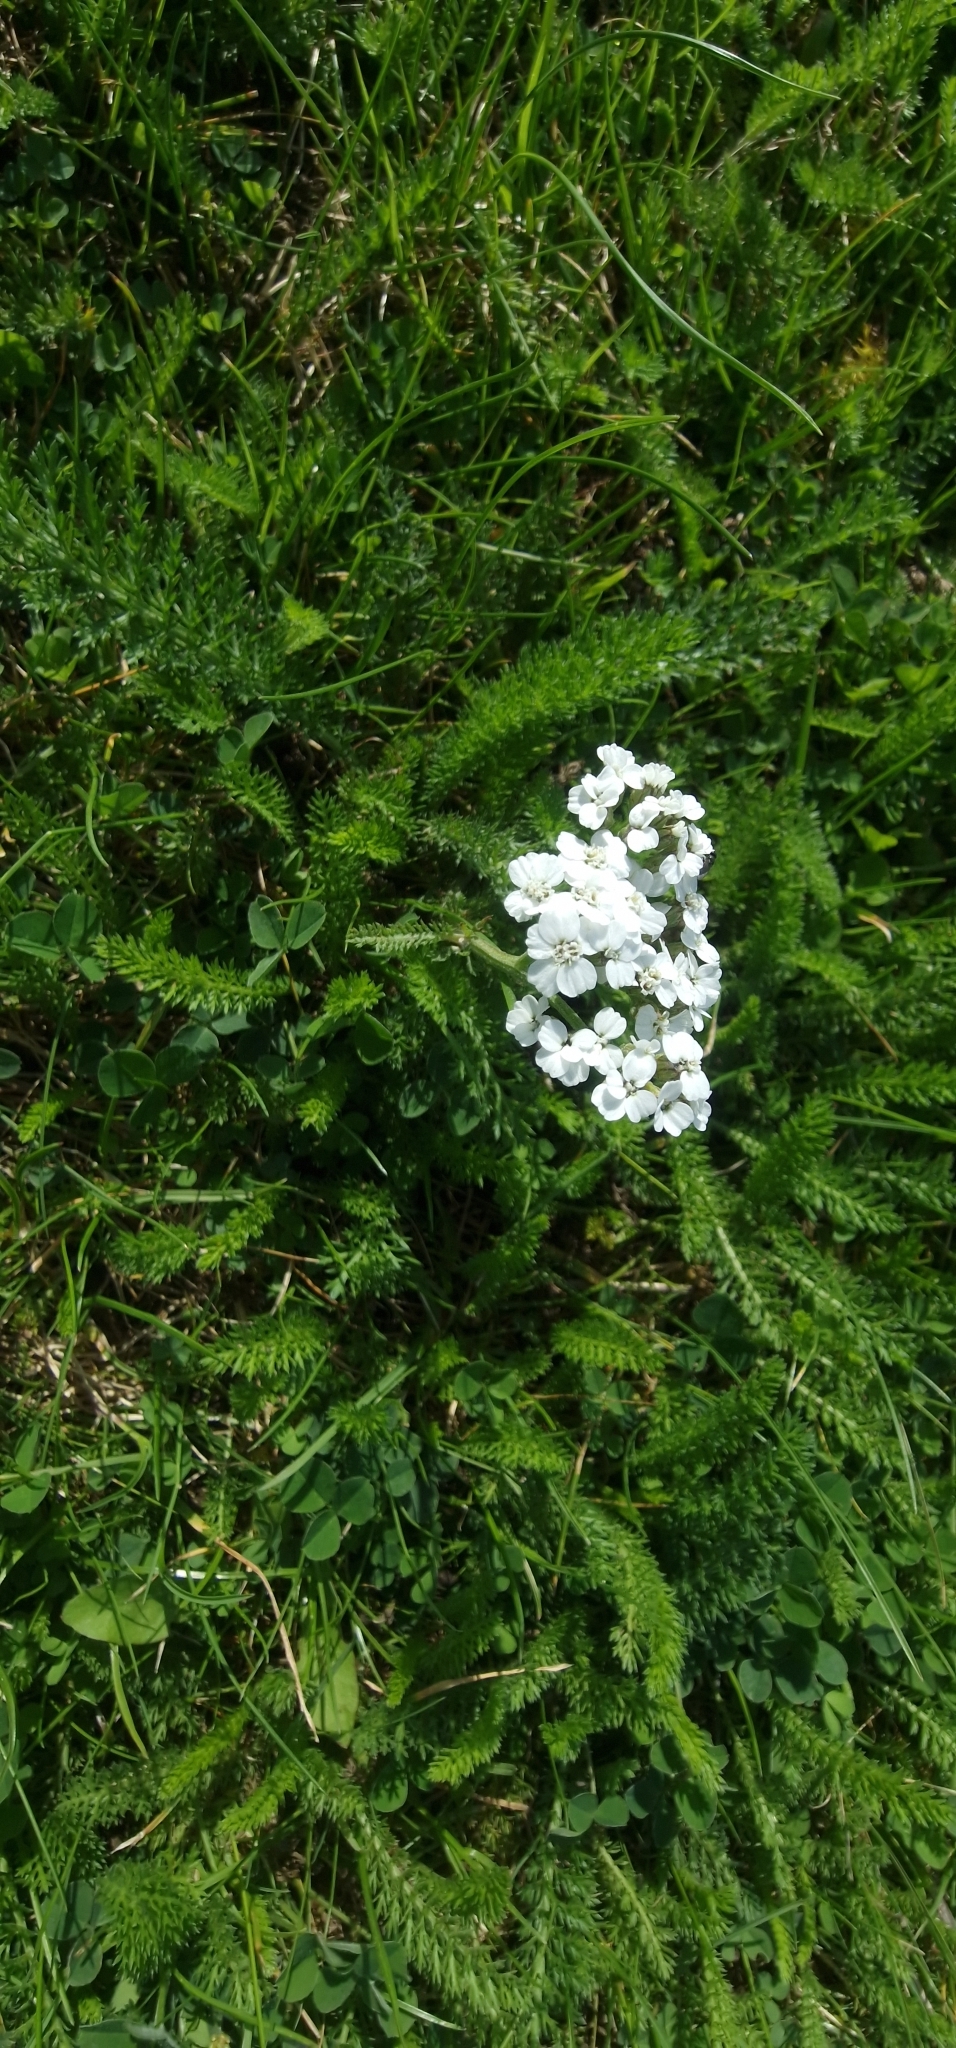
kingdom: Plantae
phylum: Tracheophyta
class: Magnoliopsida
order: Asterales
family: Asteraceae
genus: Achillea
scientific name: Achillea millefolium
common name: Yarrow
